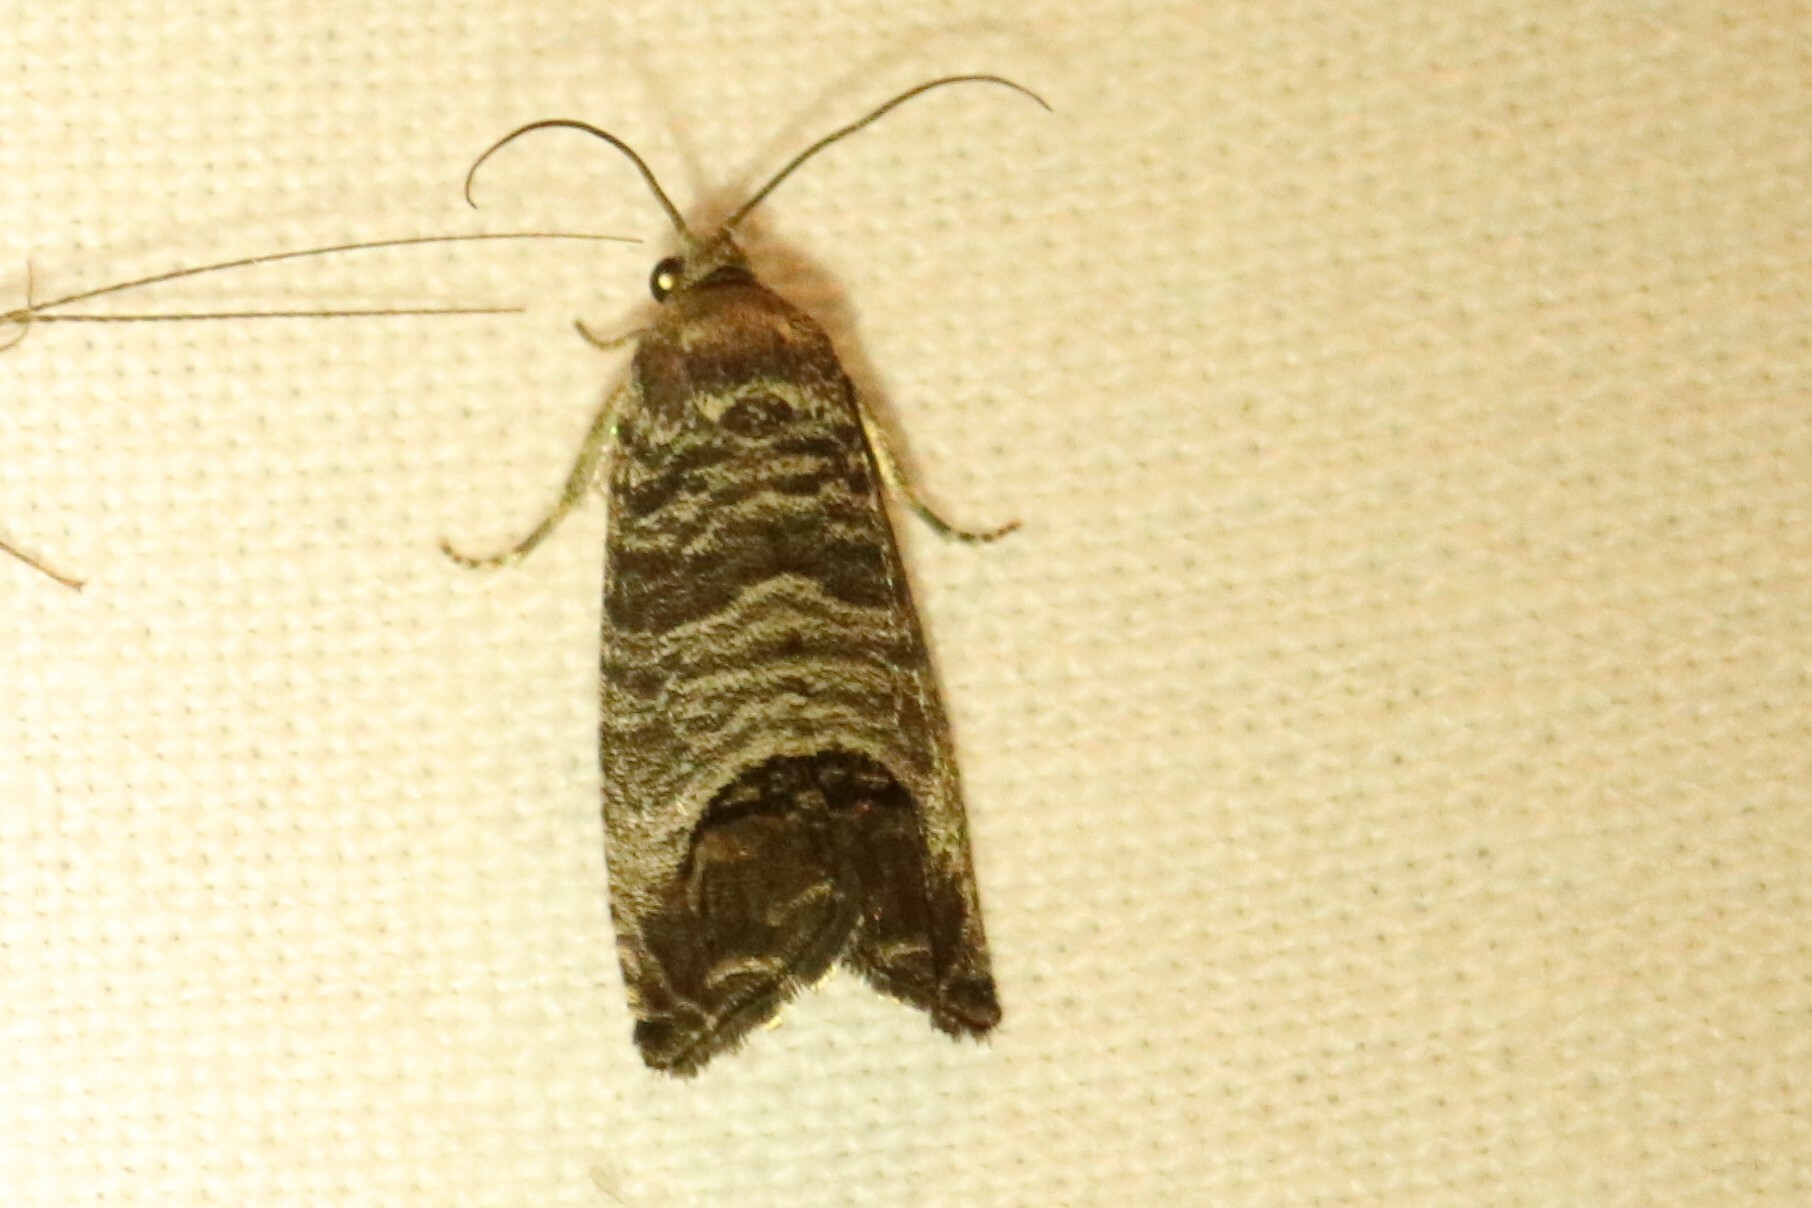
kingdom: Animalia
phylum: Arthropoda
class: Insecta
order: Lepidoptera
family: Tortricidae
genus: Cydia
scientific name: Cydia pomonella
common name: Codling moth
